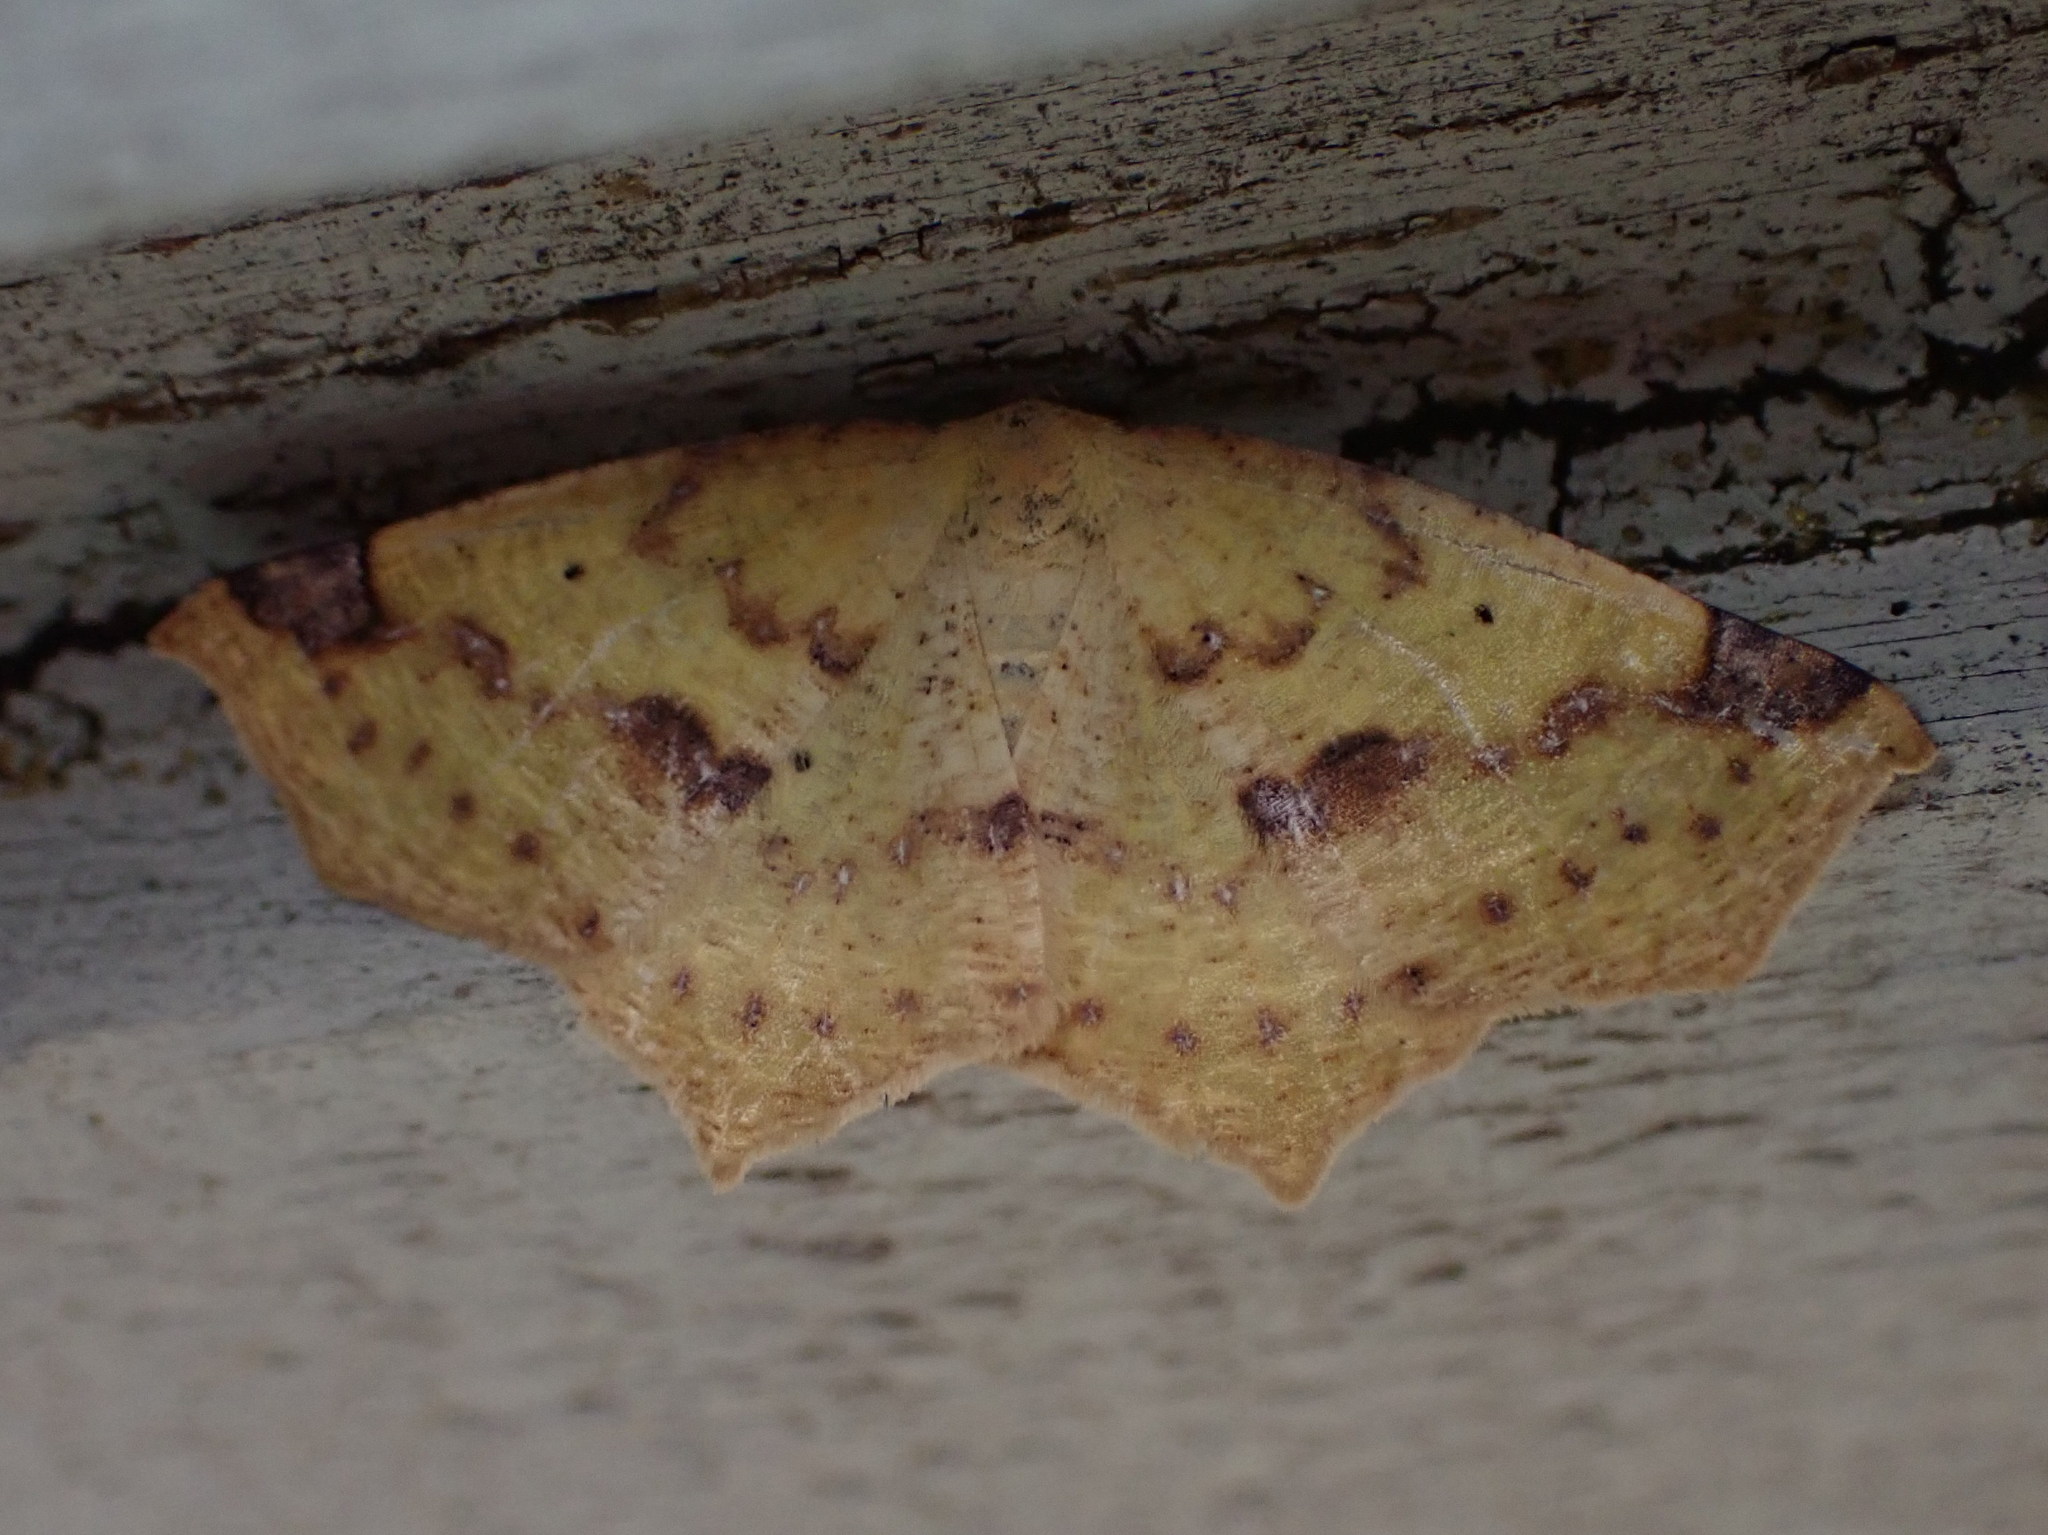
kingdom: Animalia
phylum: Arthropoda
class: Insecta
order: Lepidoptera
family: Geometridae
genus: Antepione
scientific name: Antepione thisoaria
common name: Variable antipione
